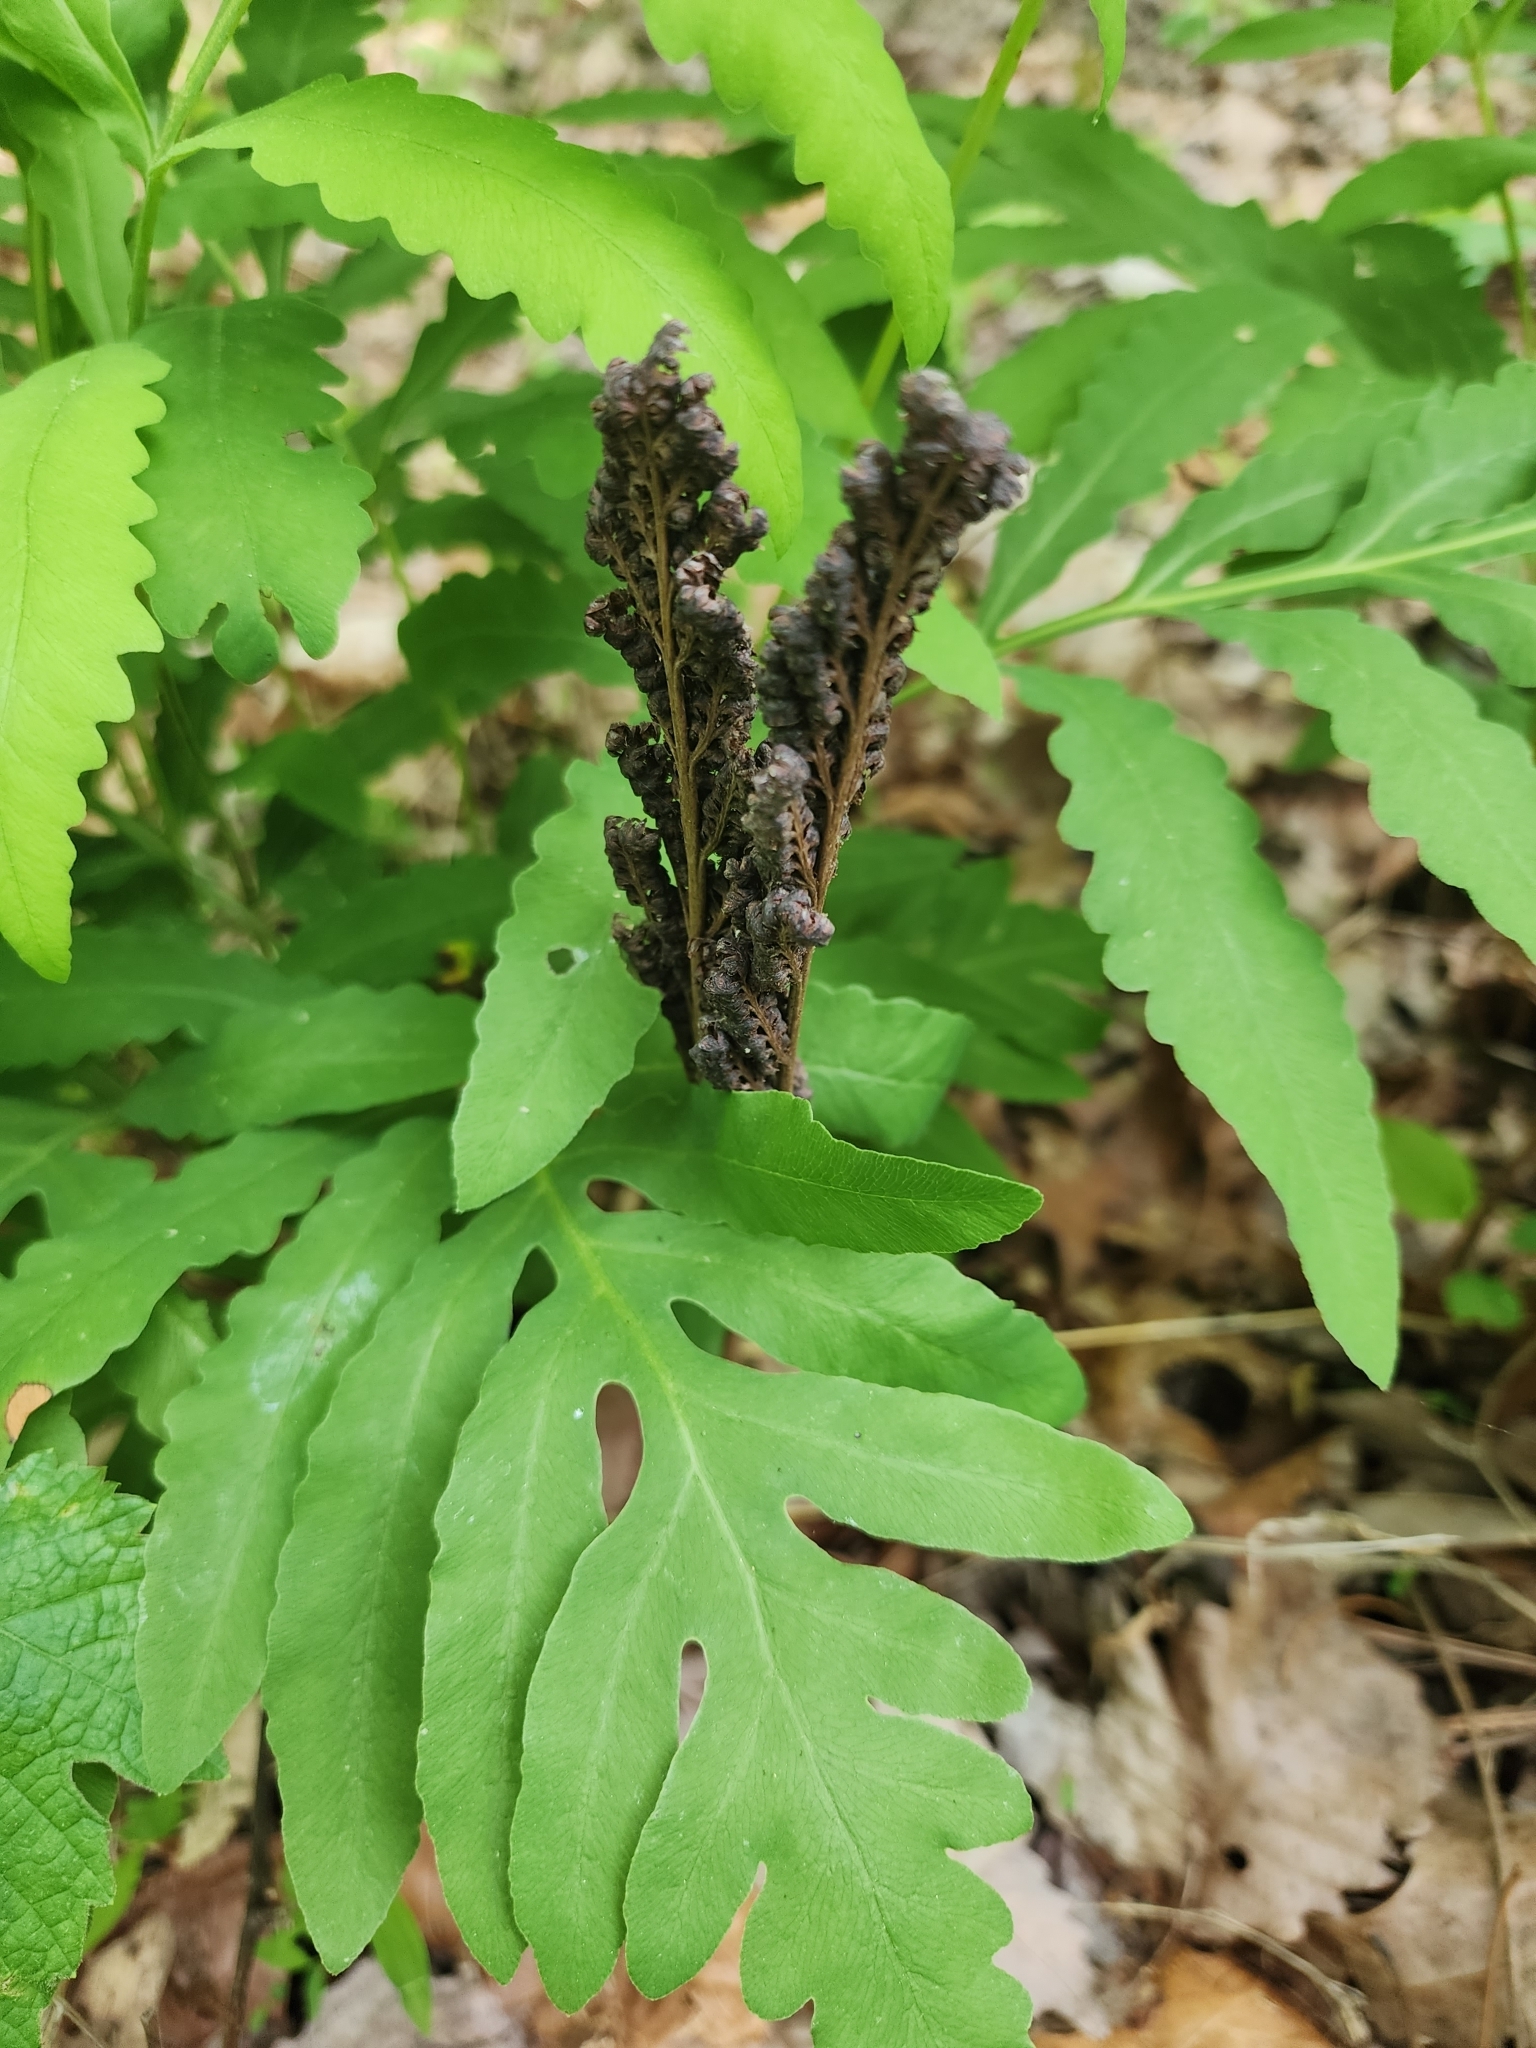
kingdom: Plantae
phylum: Tracheophyta
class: Polypodiopsida
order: Polypodiales
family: Onocleaceae
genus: Onoclea
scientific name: Onoclea sensibilis
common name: Sensitive fern
